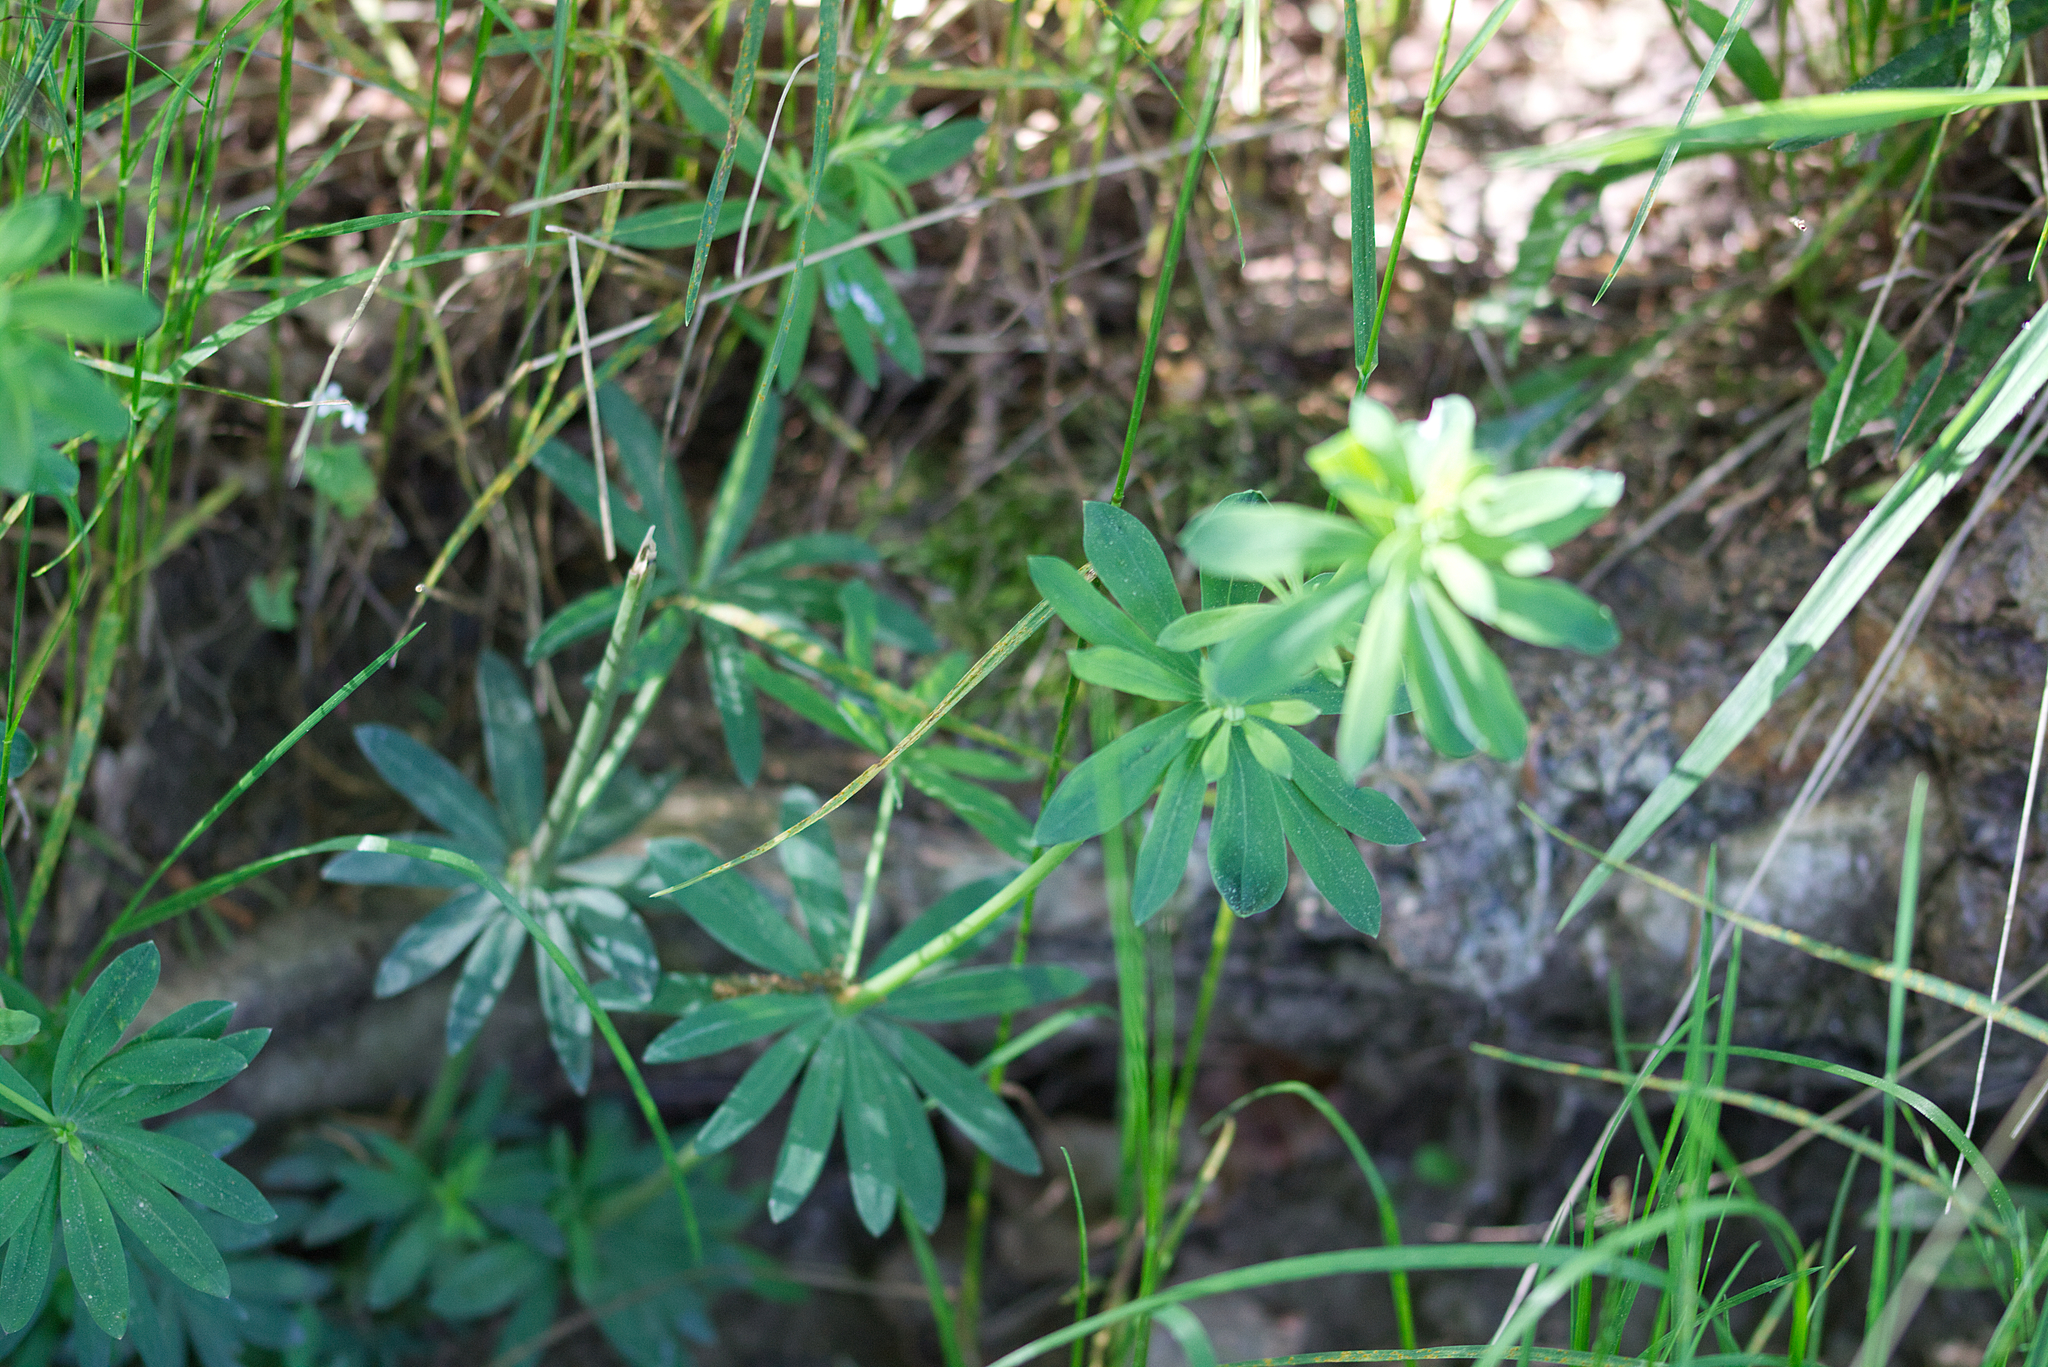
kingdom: Plantae
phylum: Tracheophyta
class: Magnoliopsida
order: Gentianales
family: Rubiaceae
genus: Galium
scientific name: Galium sylvaticum
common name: Wood bedstraw
